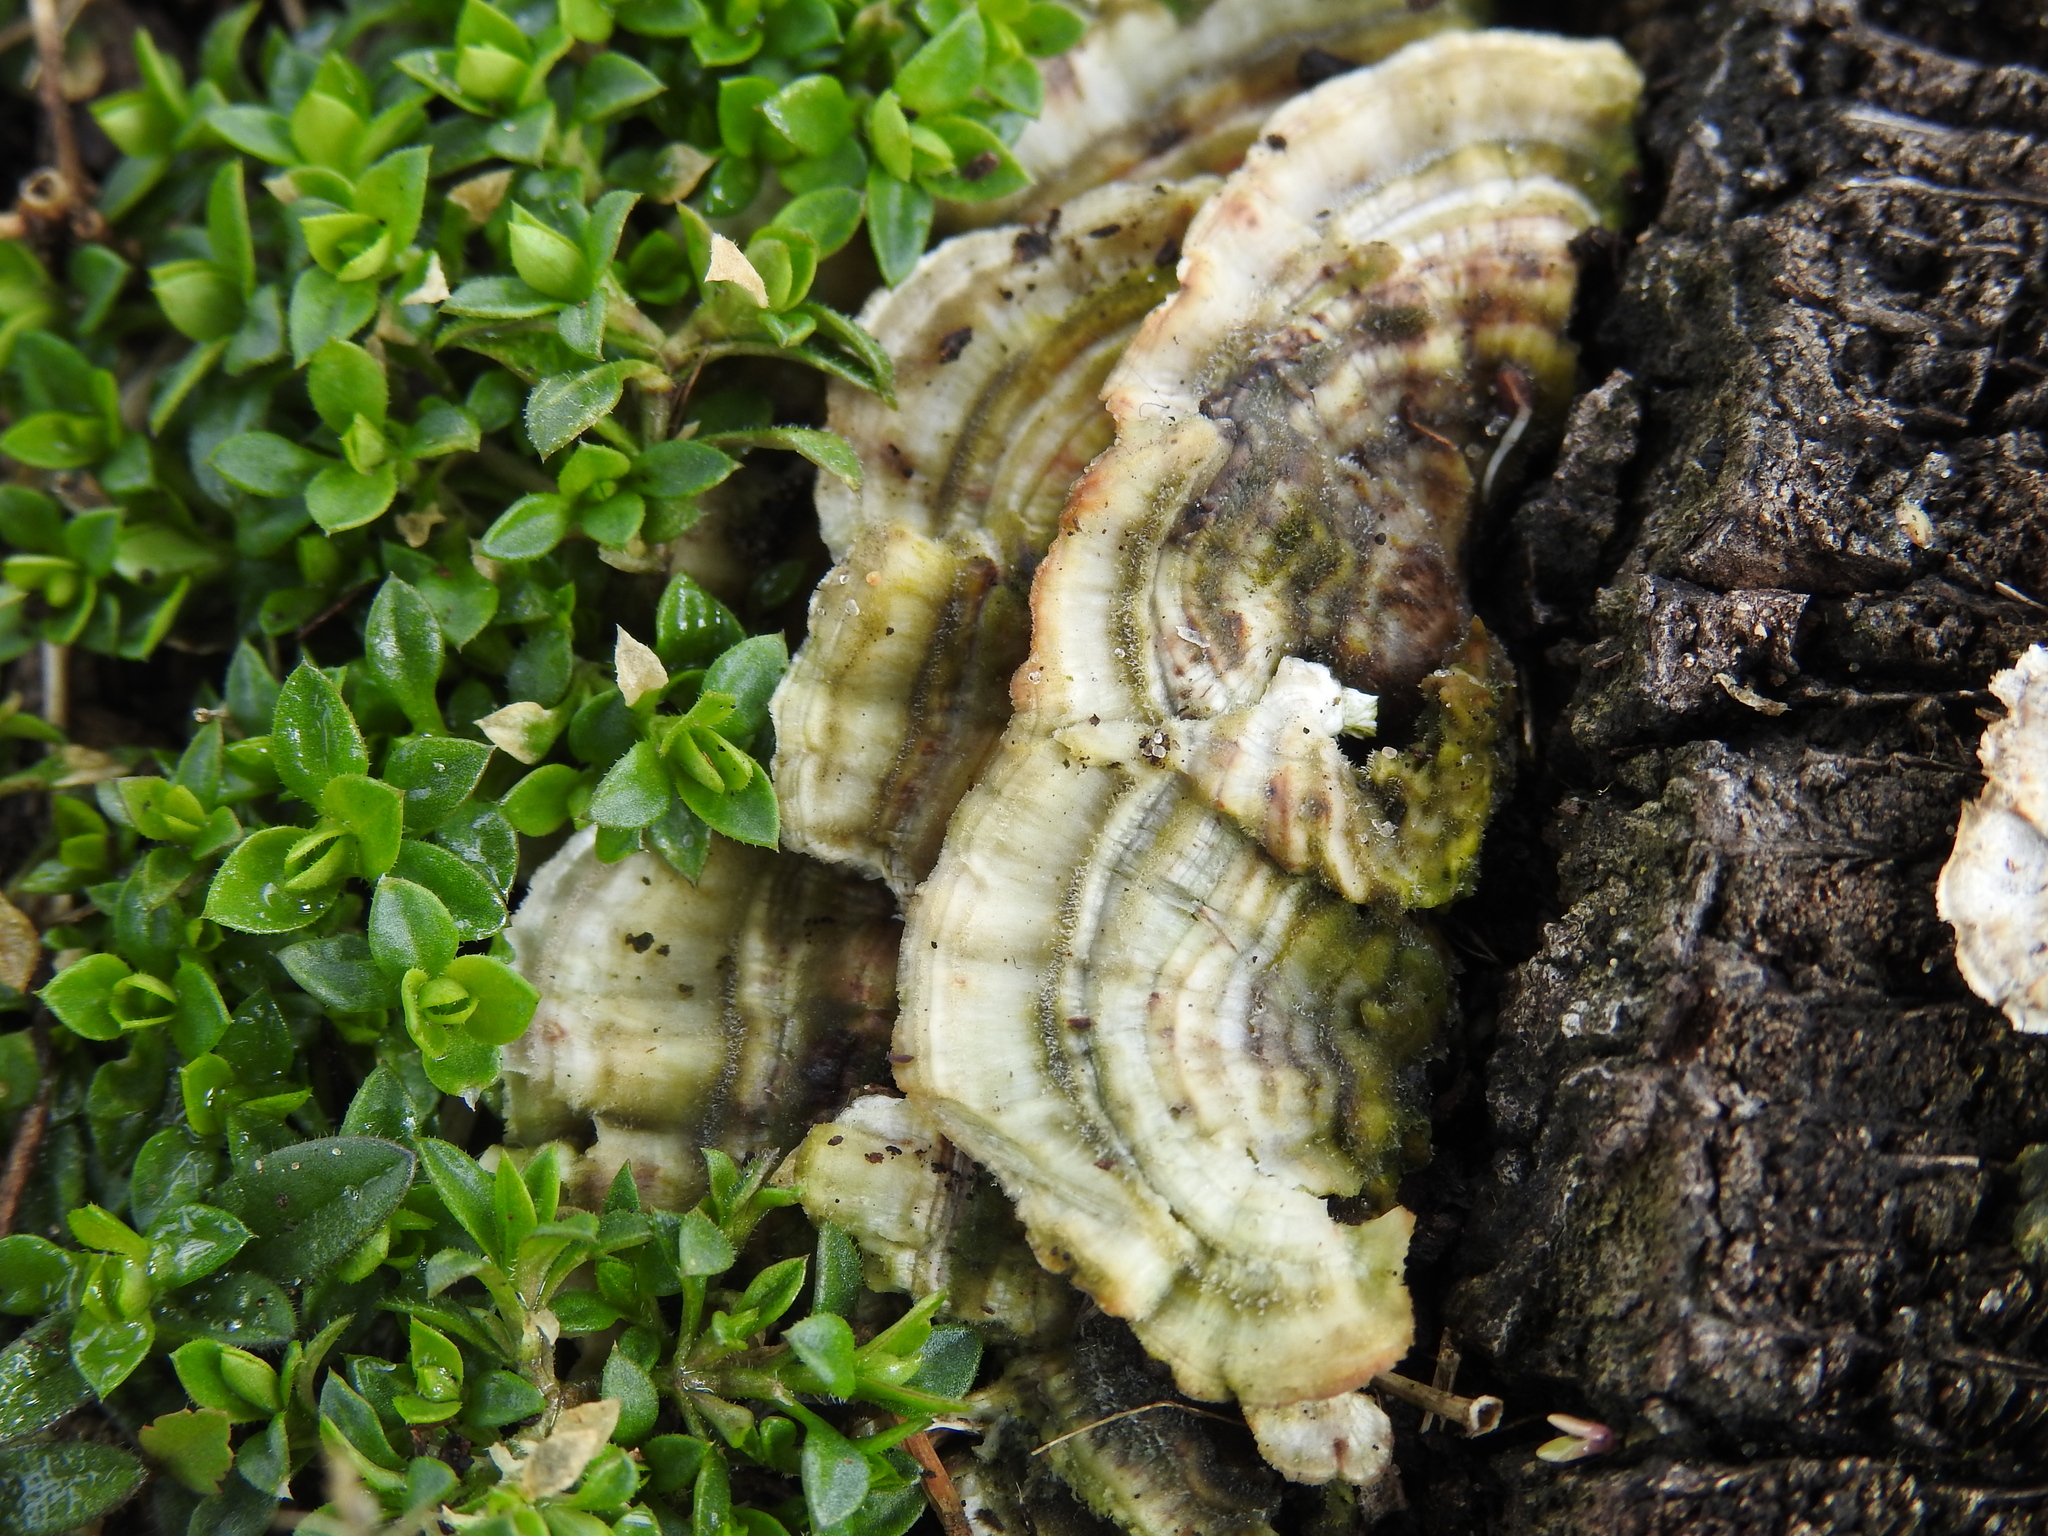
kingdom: Fungi
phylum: Basidiomycota
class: Agaricomycetes
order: Polyporales
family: Polyporaceae
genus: Trametes
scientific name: Trametes versicolor
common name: Turkeytail
